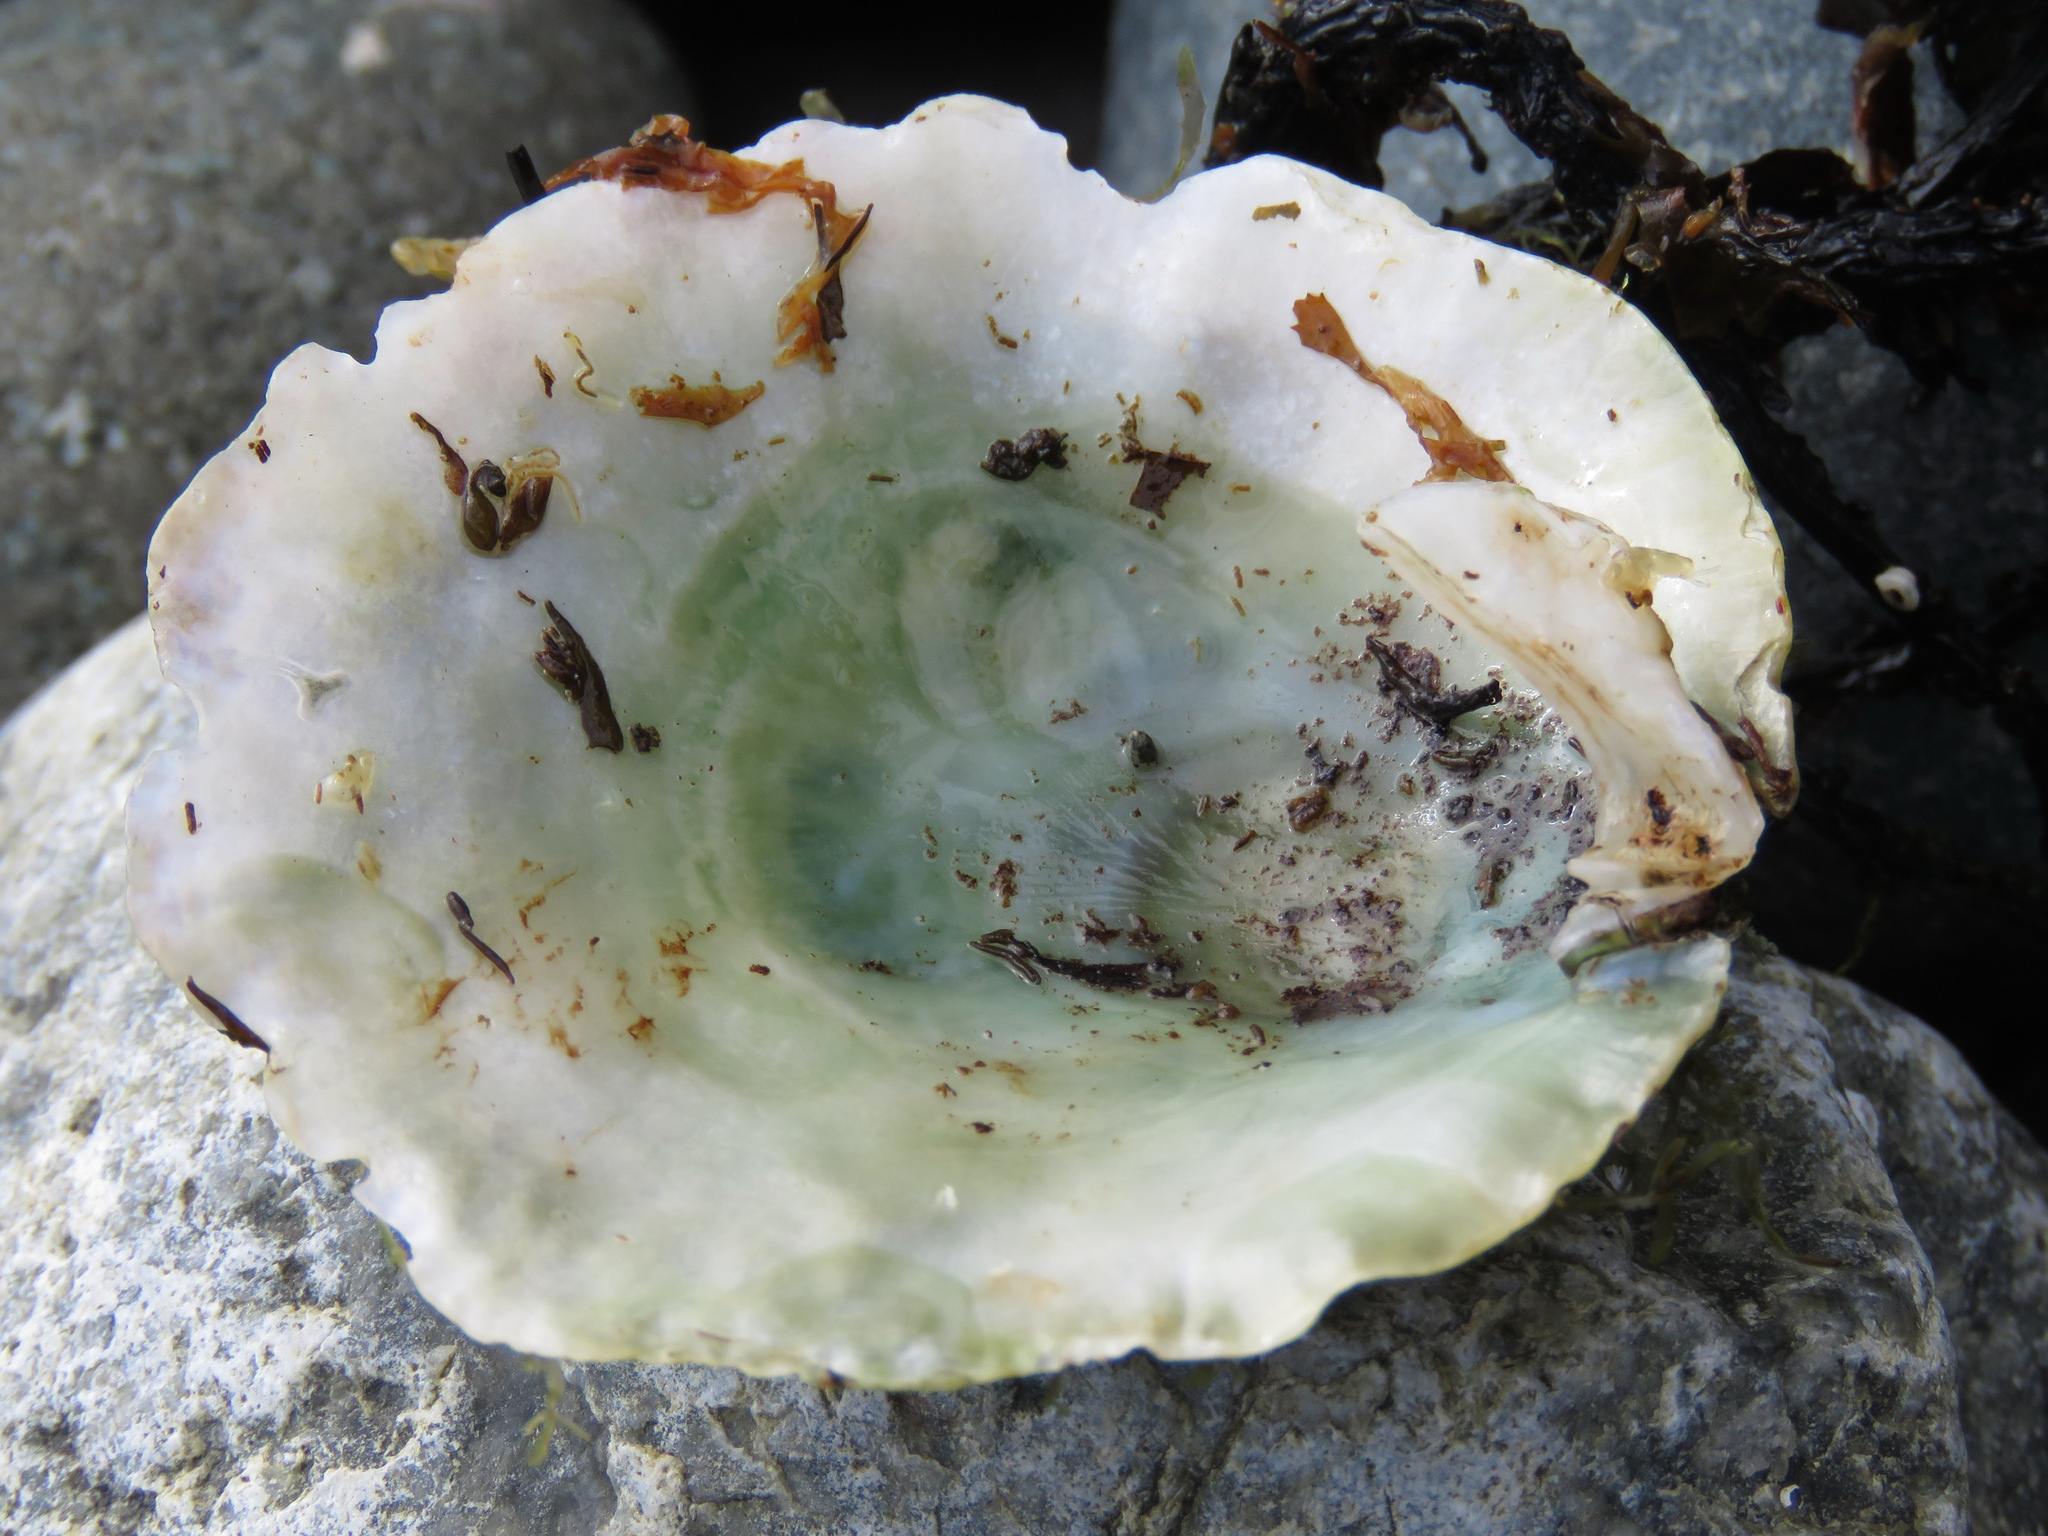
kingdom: Animalia
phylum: Mollusca
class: Bivalvia
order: Pectinida
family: Anomiidae
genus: Pododesmus
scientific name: Pododesmus macrochisma
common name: Alaska jingle
